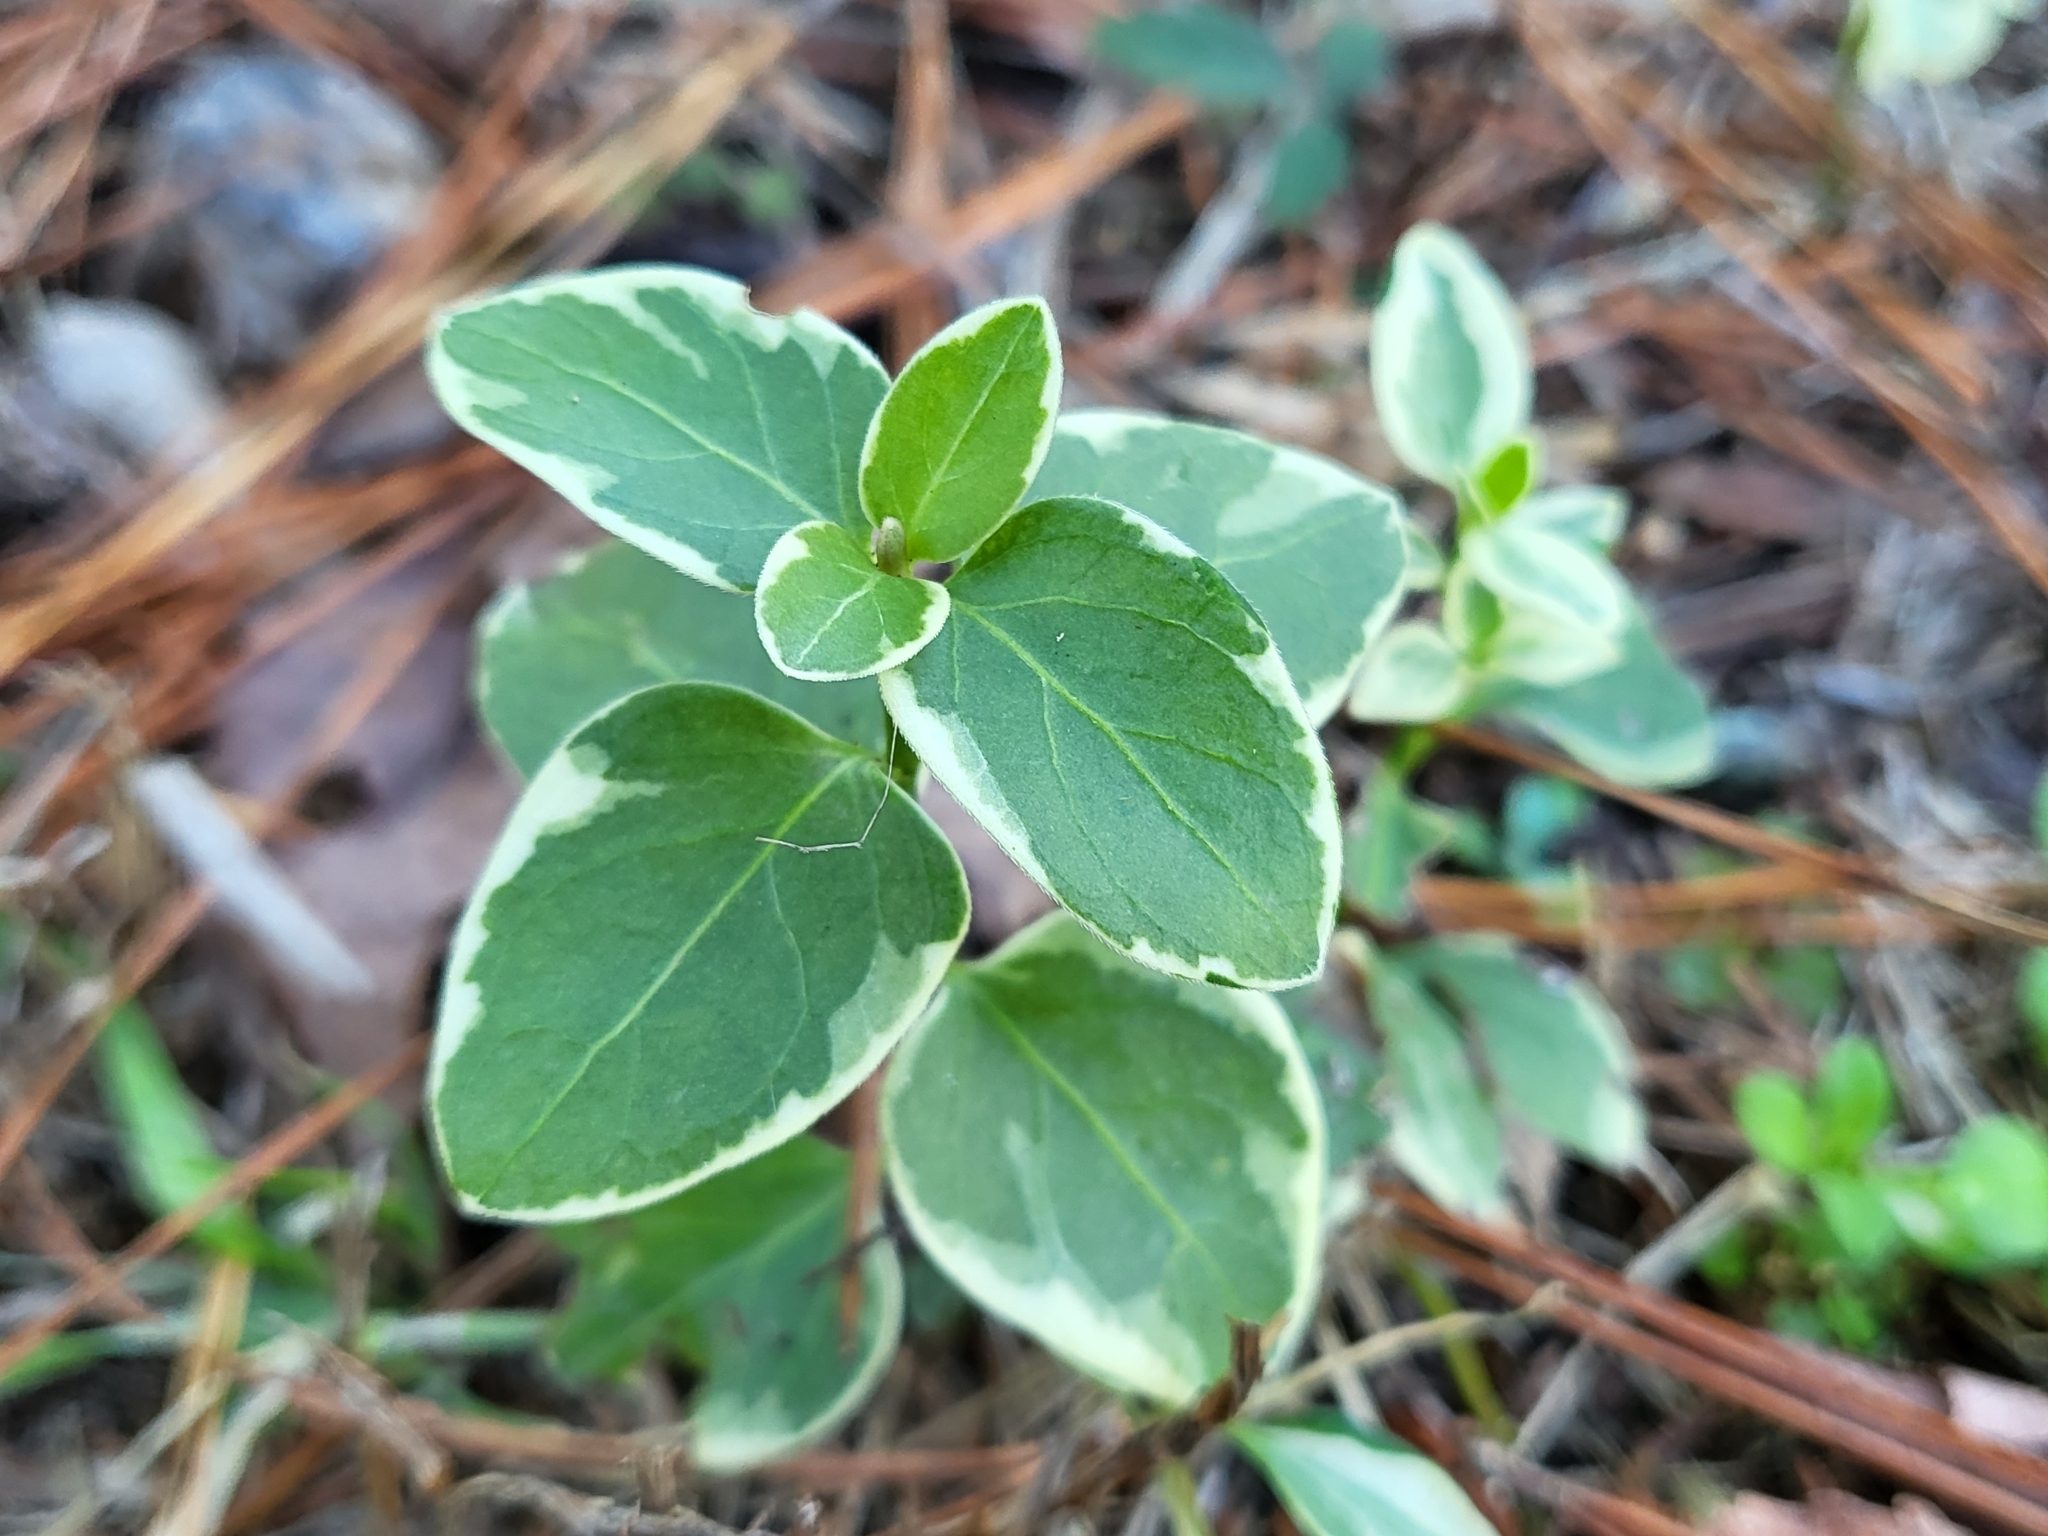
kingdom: Plantae
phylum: Tracheophyta
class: Magnoliopsida
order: Gentianales
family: Apocynaceae
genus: Vinca
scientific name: Vinca major
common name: Greater periwinkle
